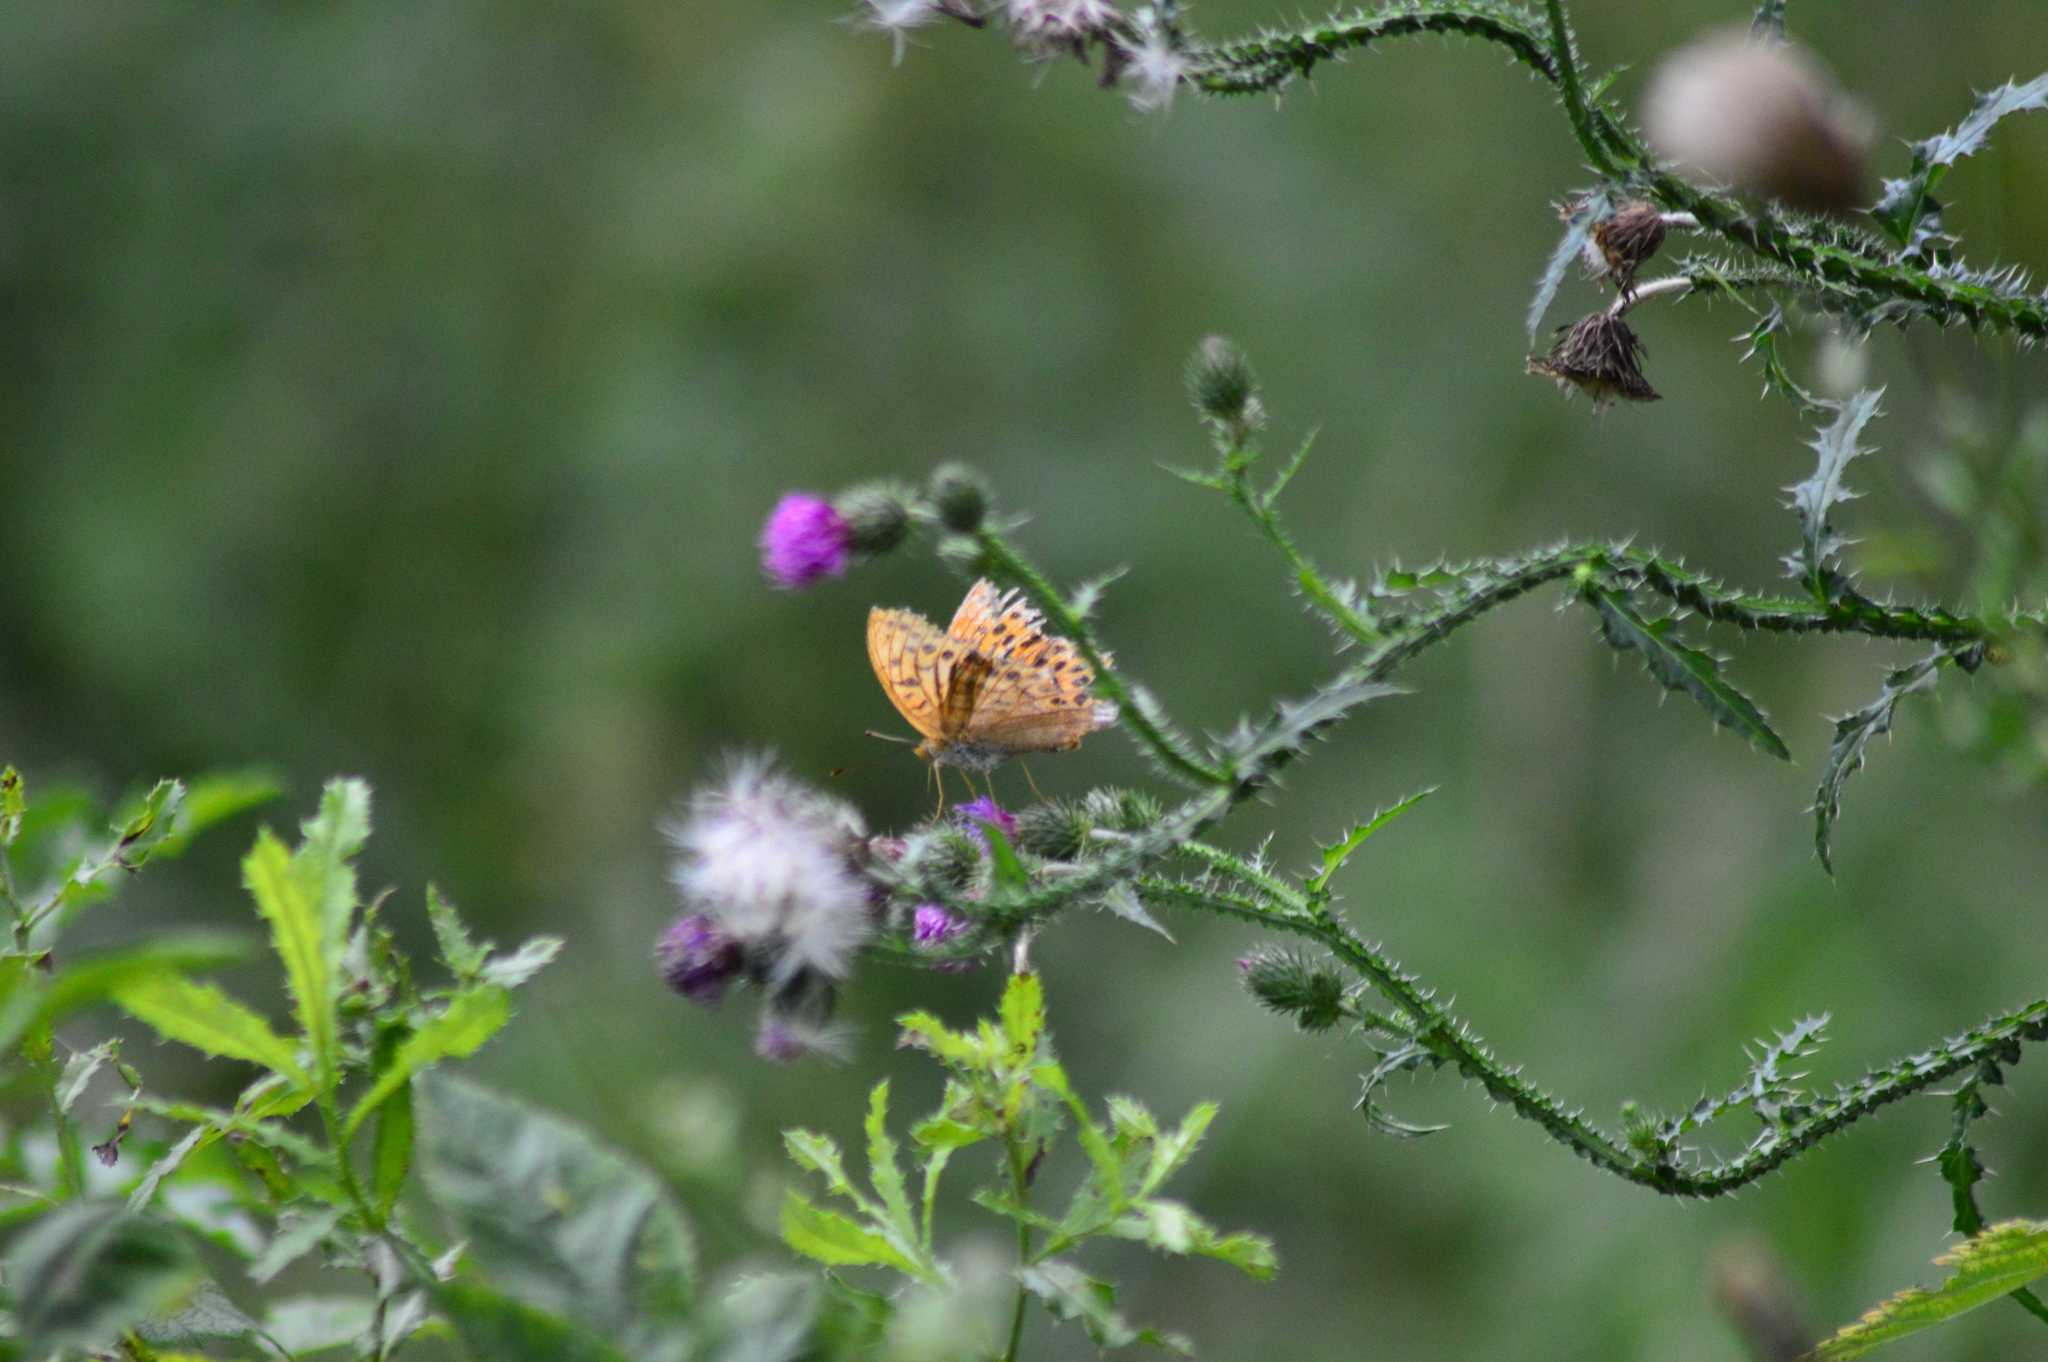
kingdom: Animalia
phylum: Arthropoda
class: Insecta
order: Lepidoptera
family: Nymphalidae
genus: Argynnis
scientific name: Argynnis paphia
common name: Silver-washed fritillary
